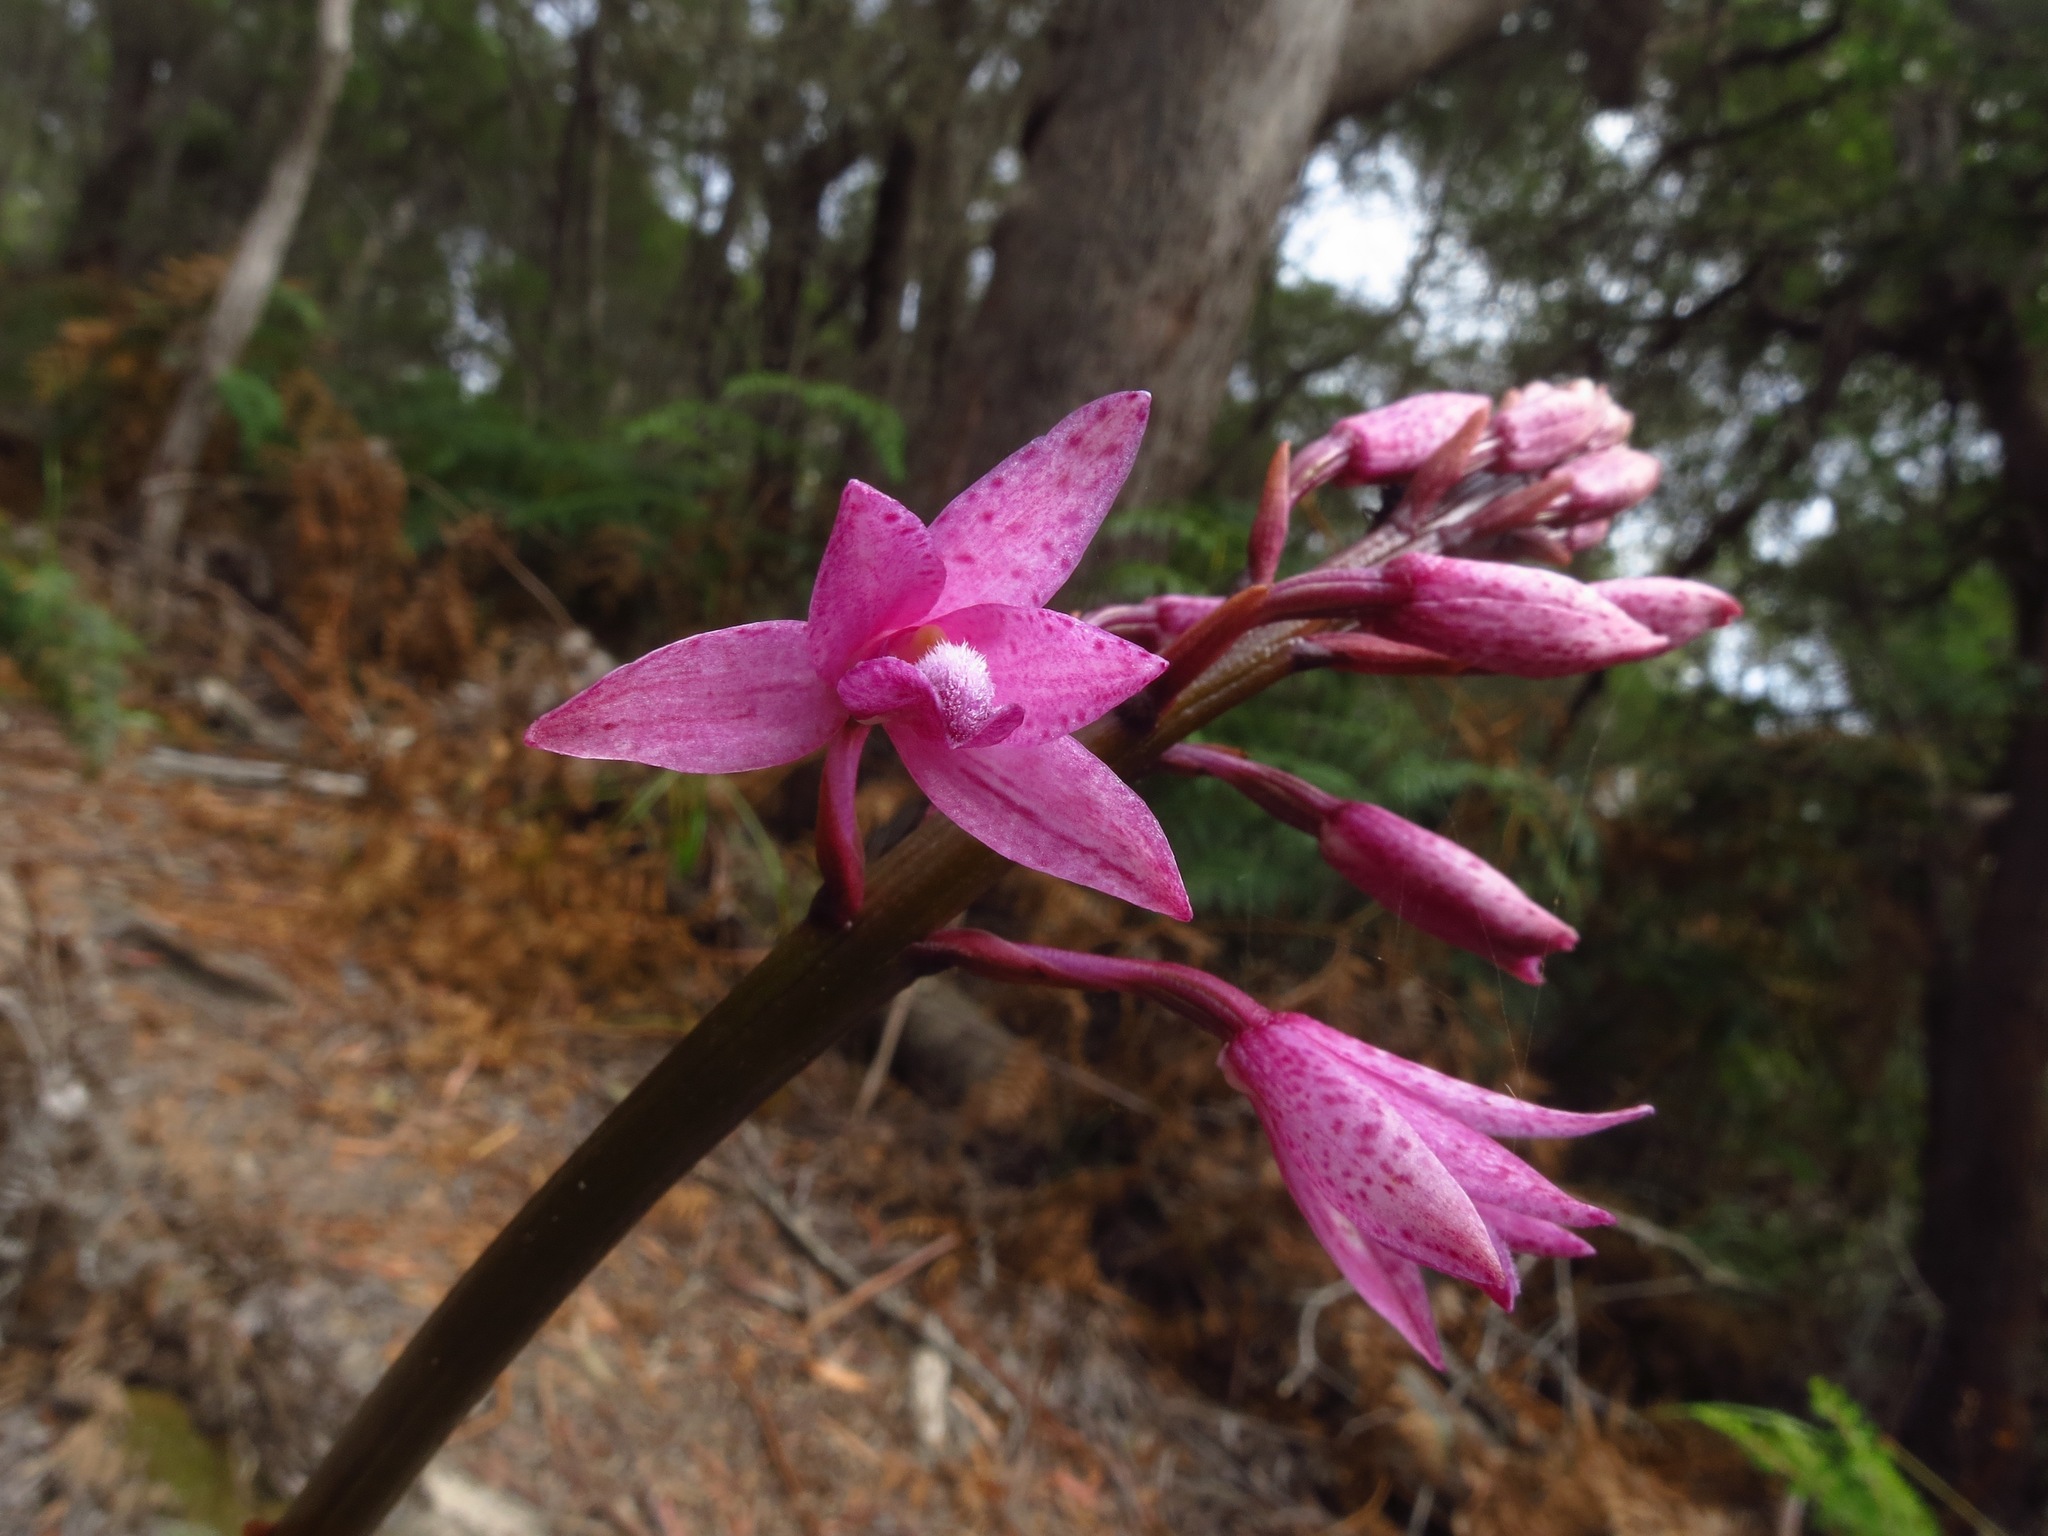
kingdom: Plantae
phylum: Tracheophyta
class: Liliopsida
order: Asparagales
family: Orchidaceae
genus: Dipodium
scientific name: Dipodium roseum
